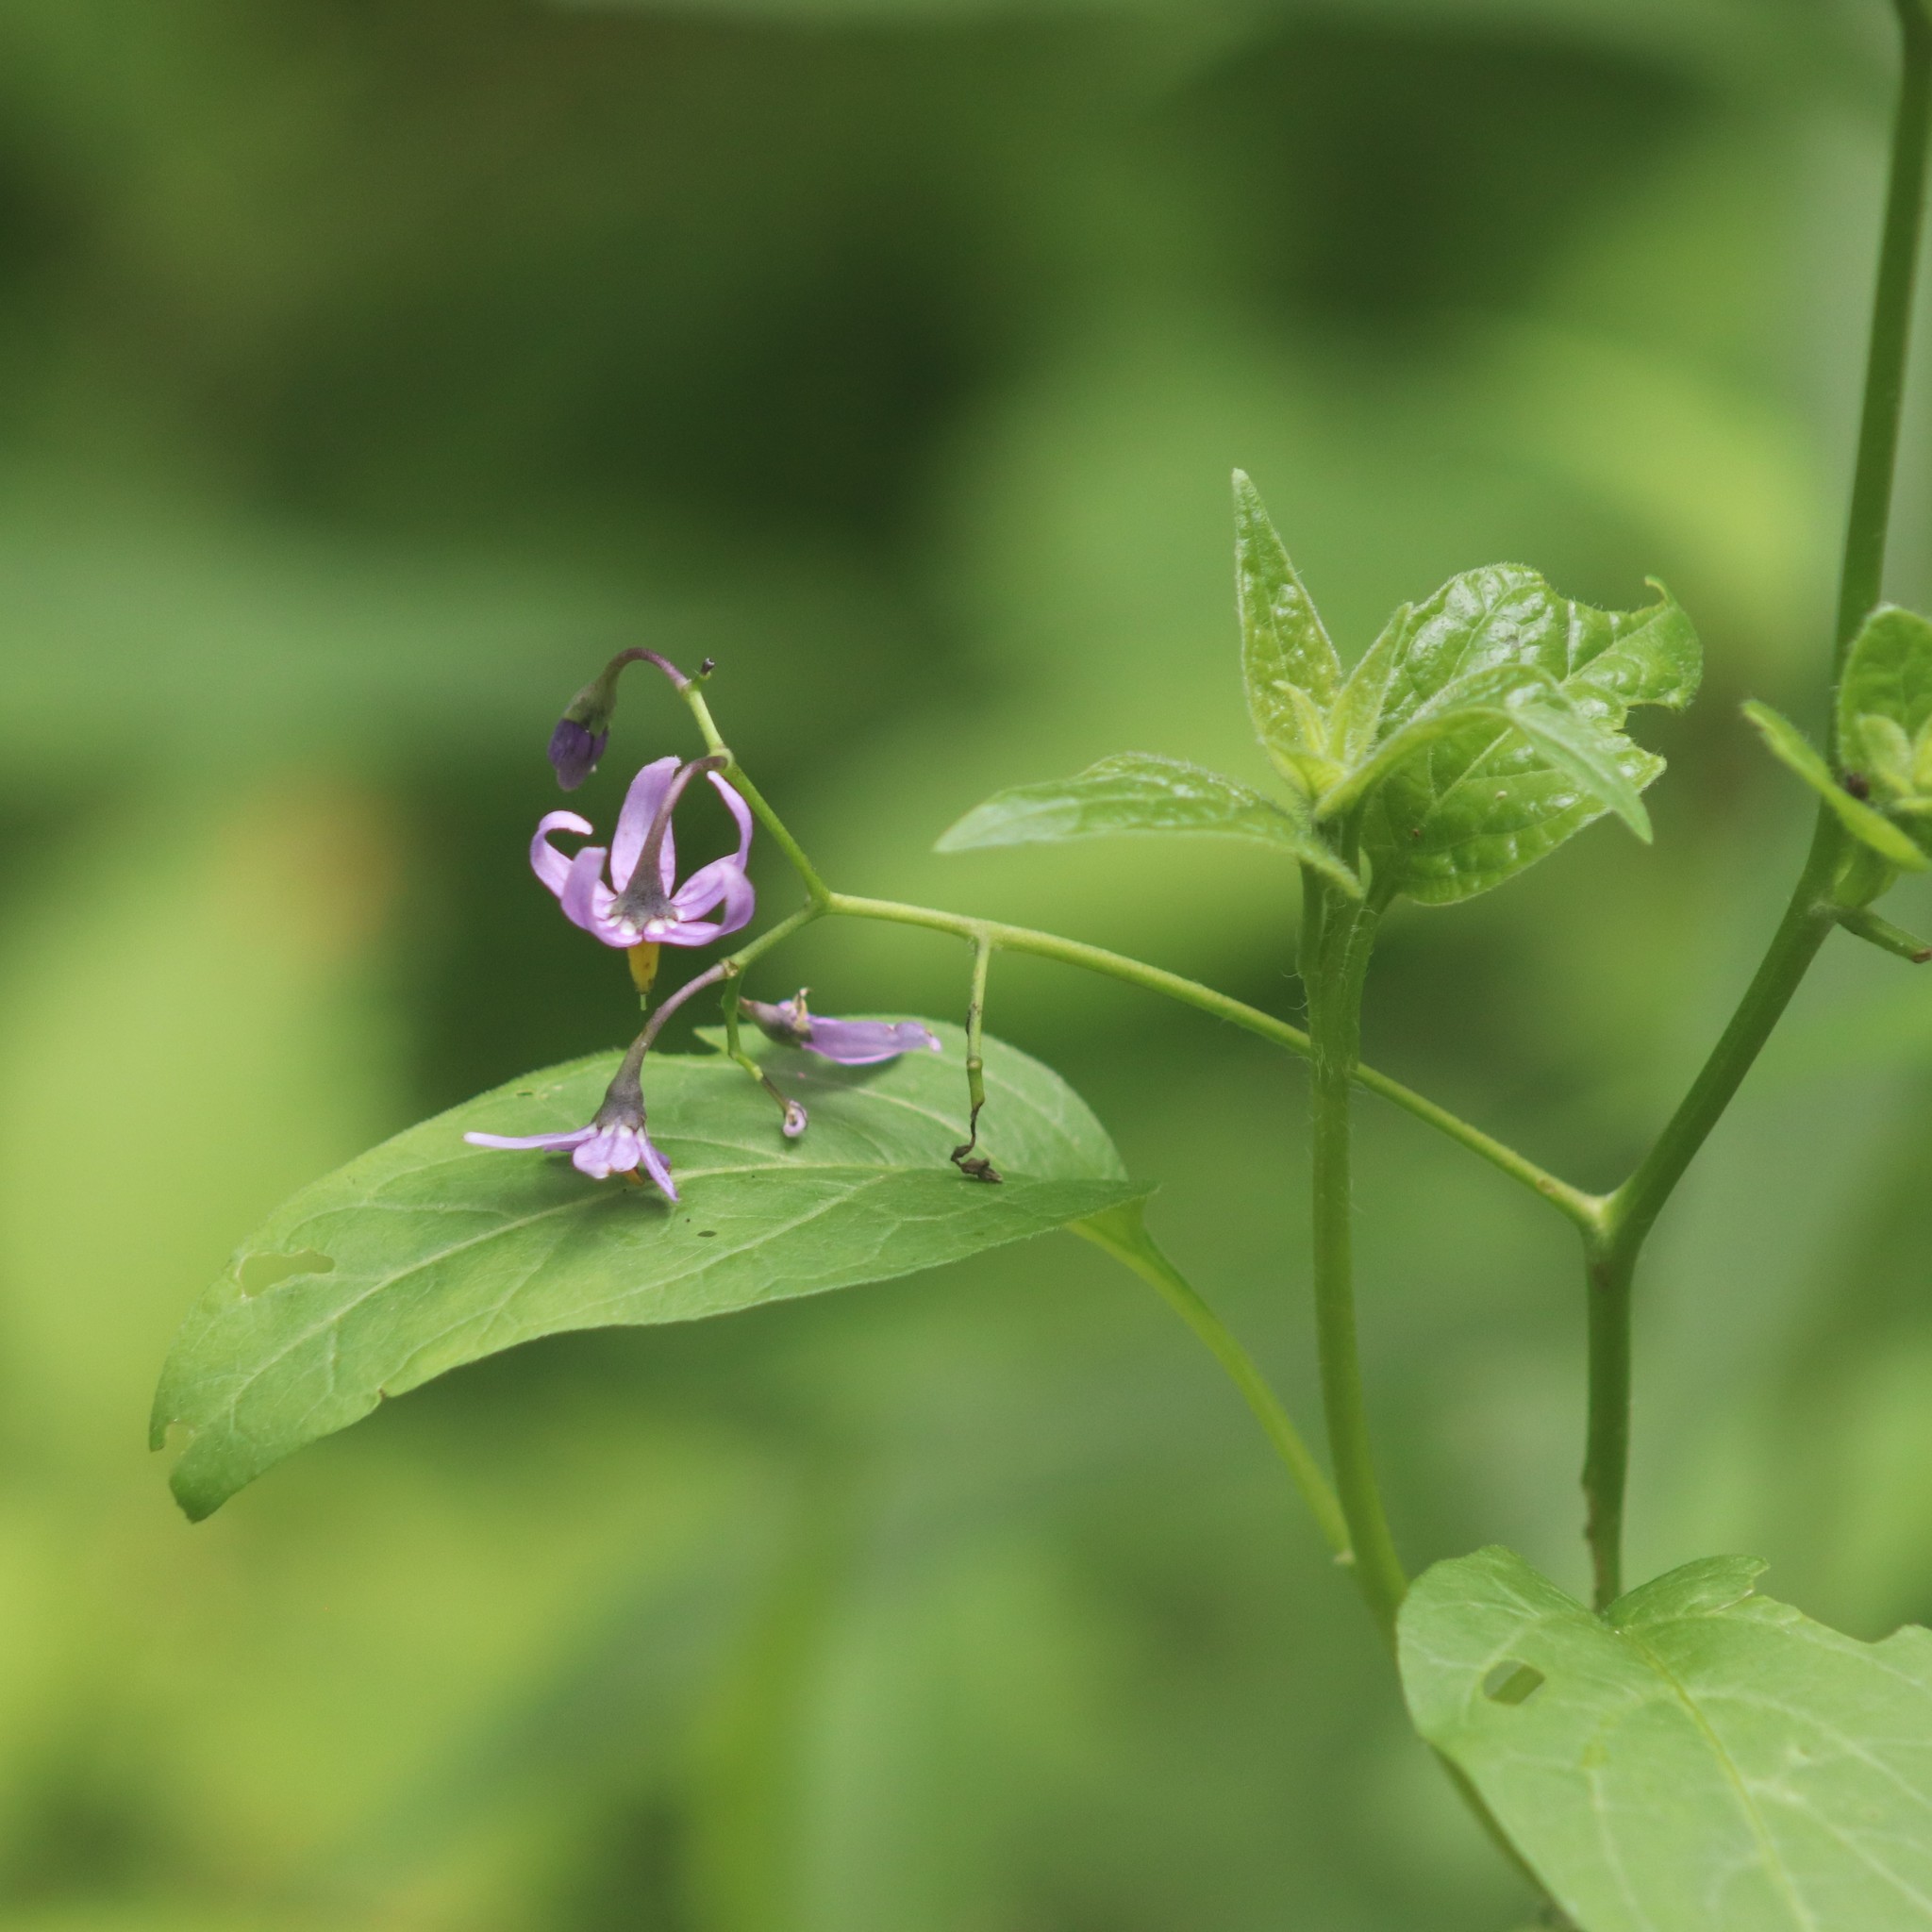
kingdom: Plantae
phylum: Tracheophyta
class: Magnoliopsida
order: Solanales
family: Solanaceae
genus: Solanum
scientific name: Solanum dulcamara
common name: Climbing nightshade
